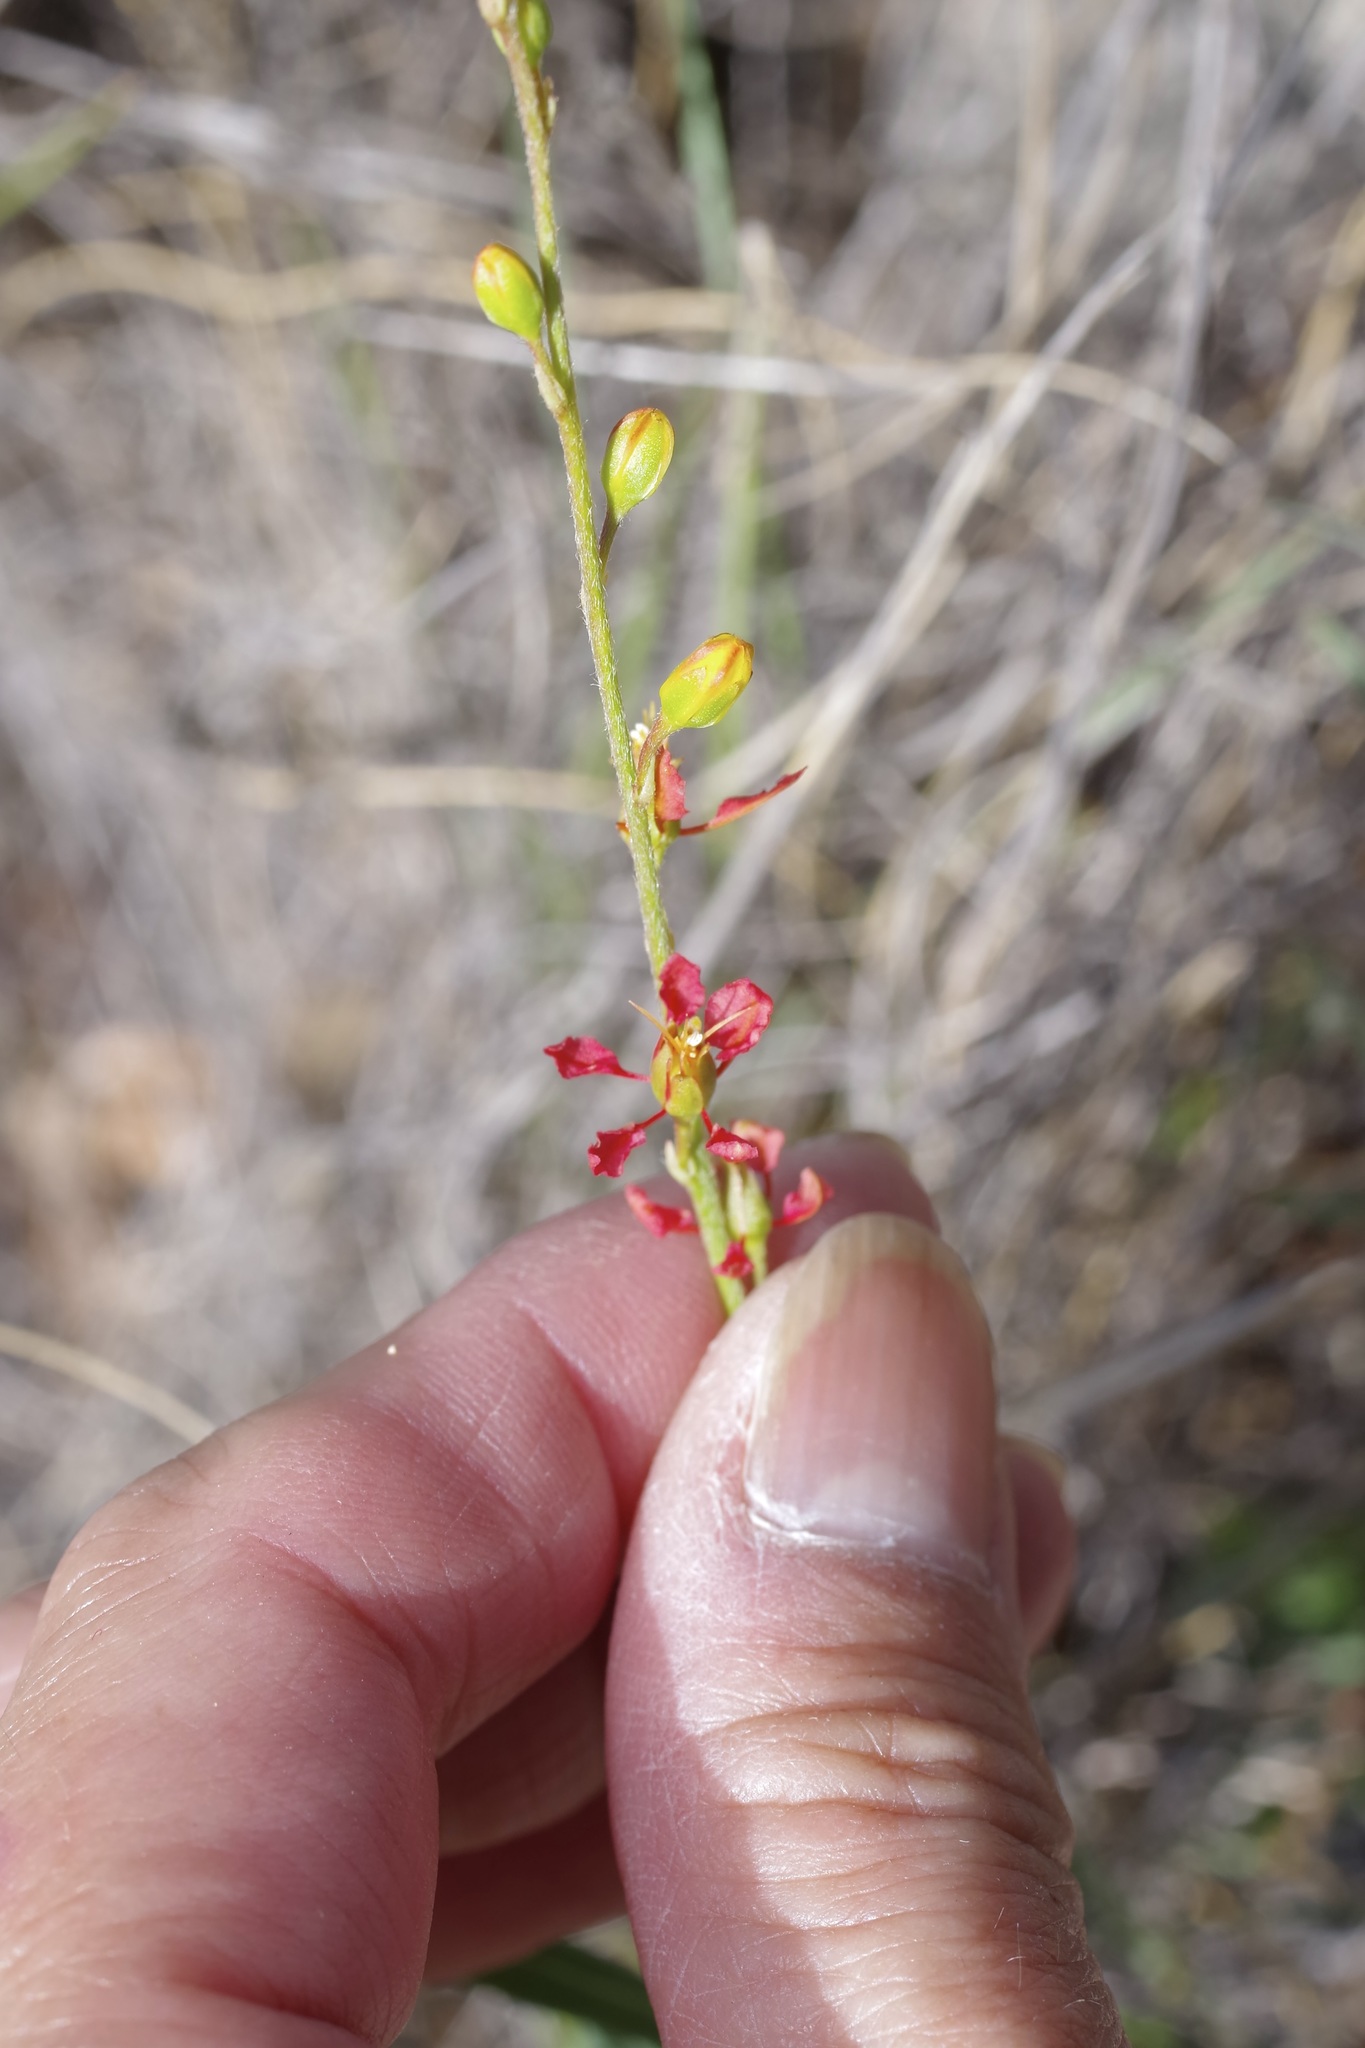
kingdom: Plantae
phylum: Tracheophyta
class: Magnoliopsida
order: Malpighiales
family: Malpighiaceae
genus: Galphimia
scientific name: Galphimia angustifolia
